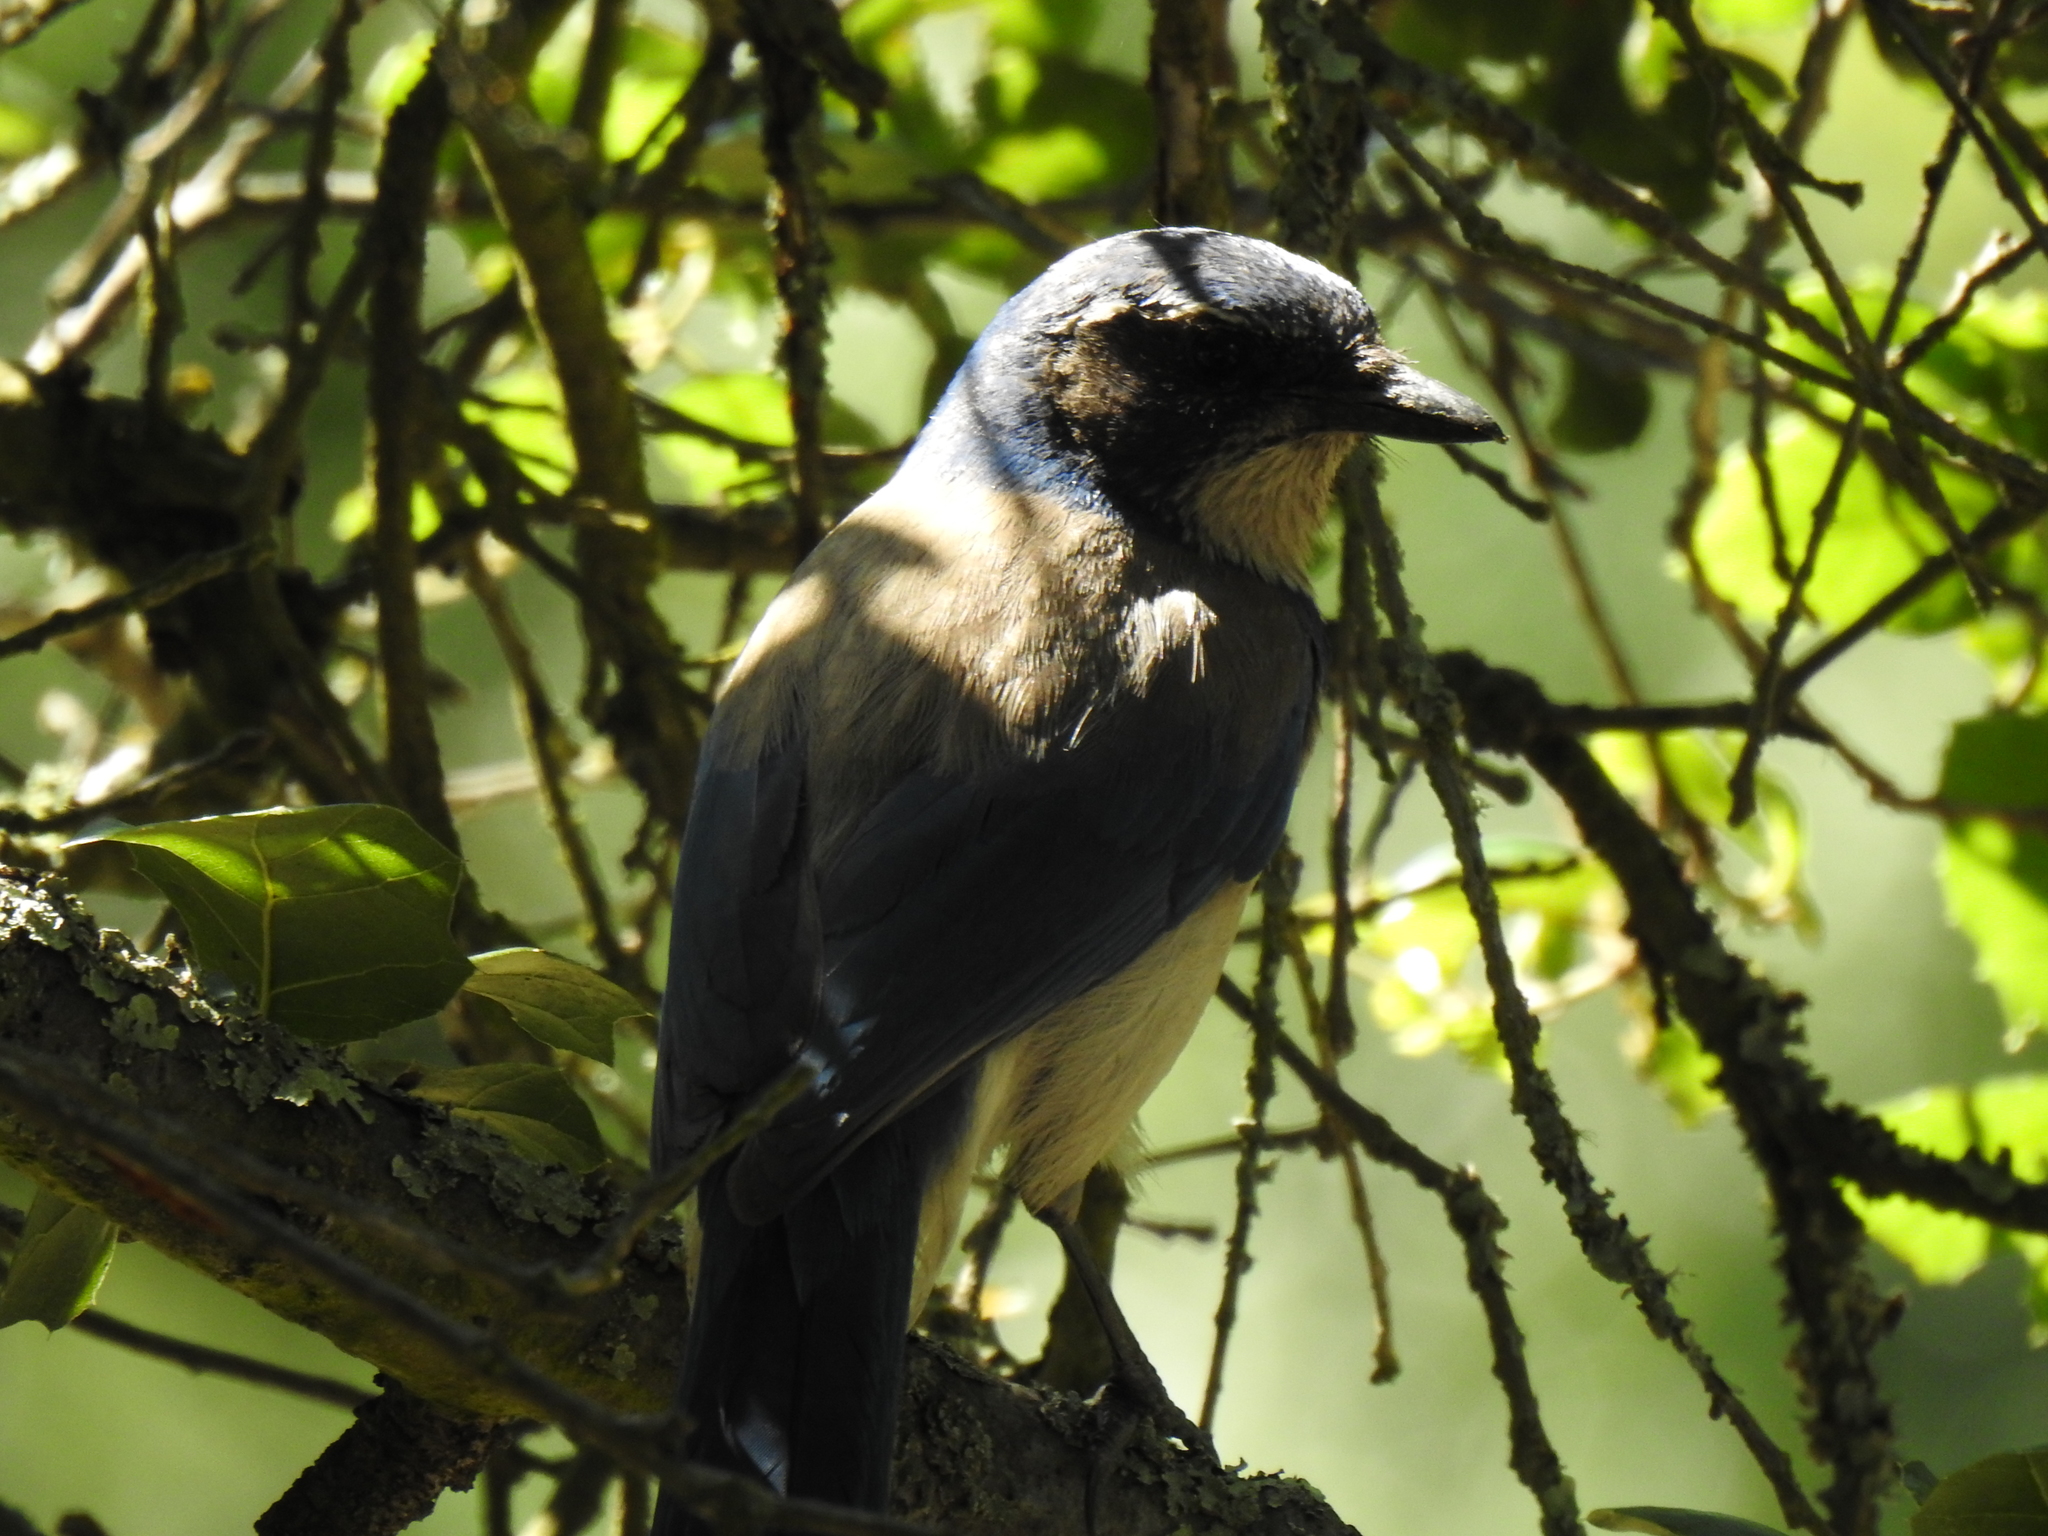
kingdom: Animalia
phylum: Chordata
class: Aves
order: Passeriformes
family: Corvidae
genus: Aphelocoma
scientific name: Aphelocoma californica
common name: California scrub-jay
